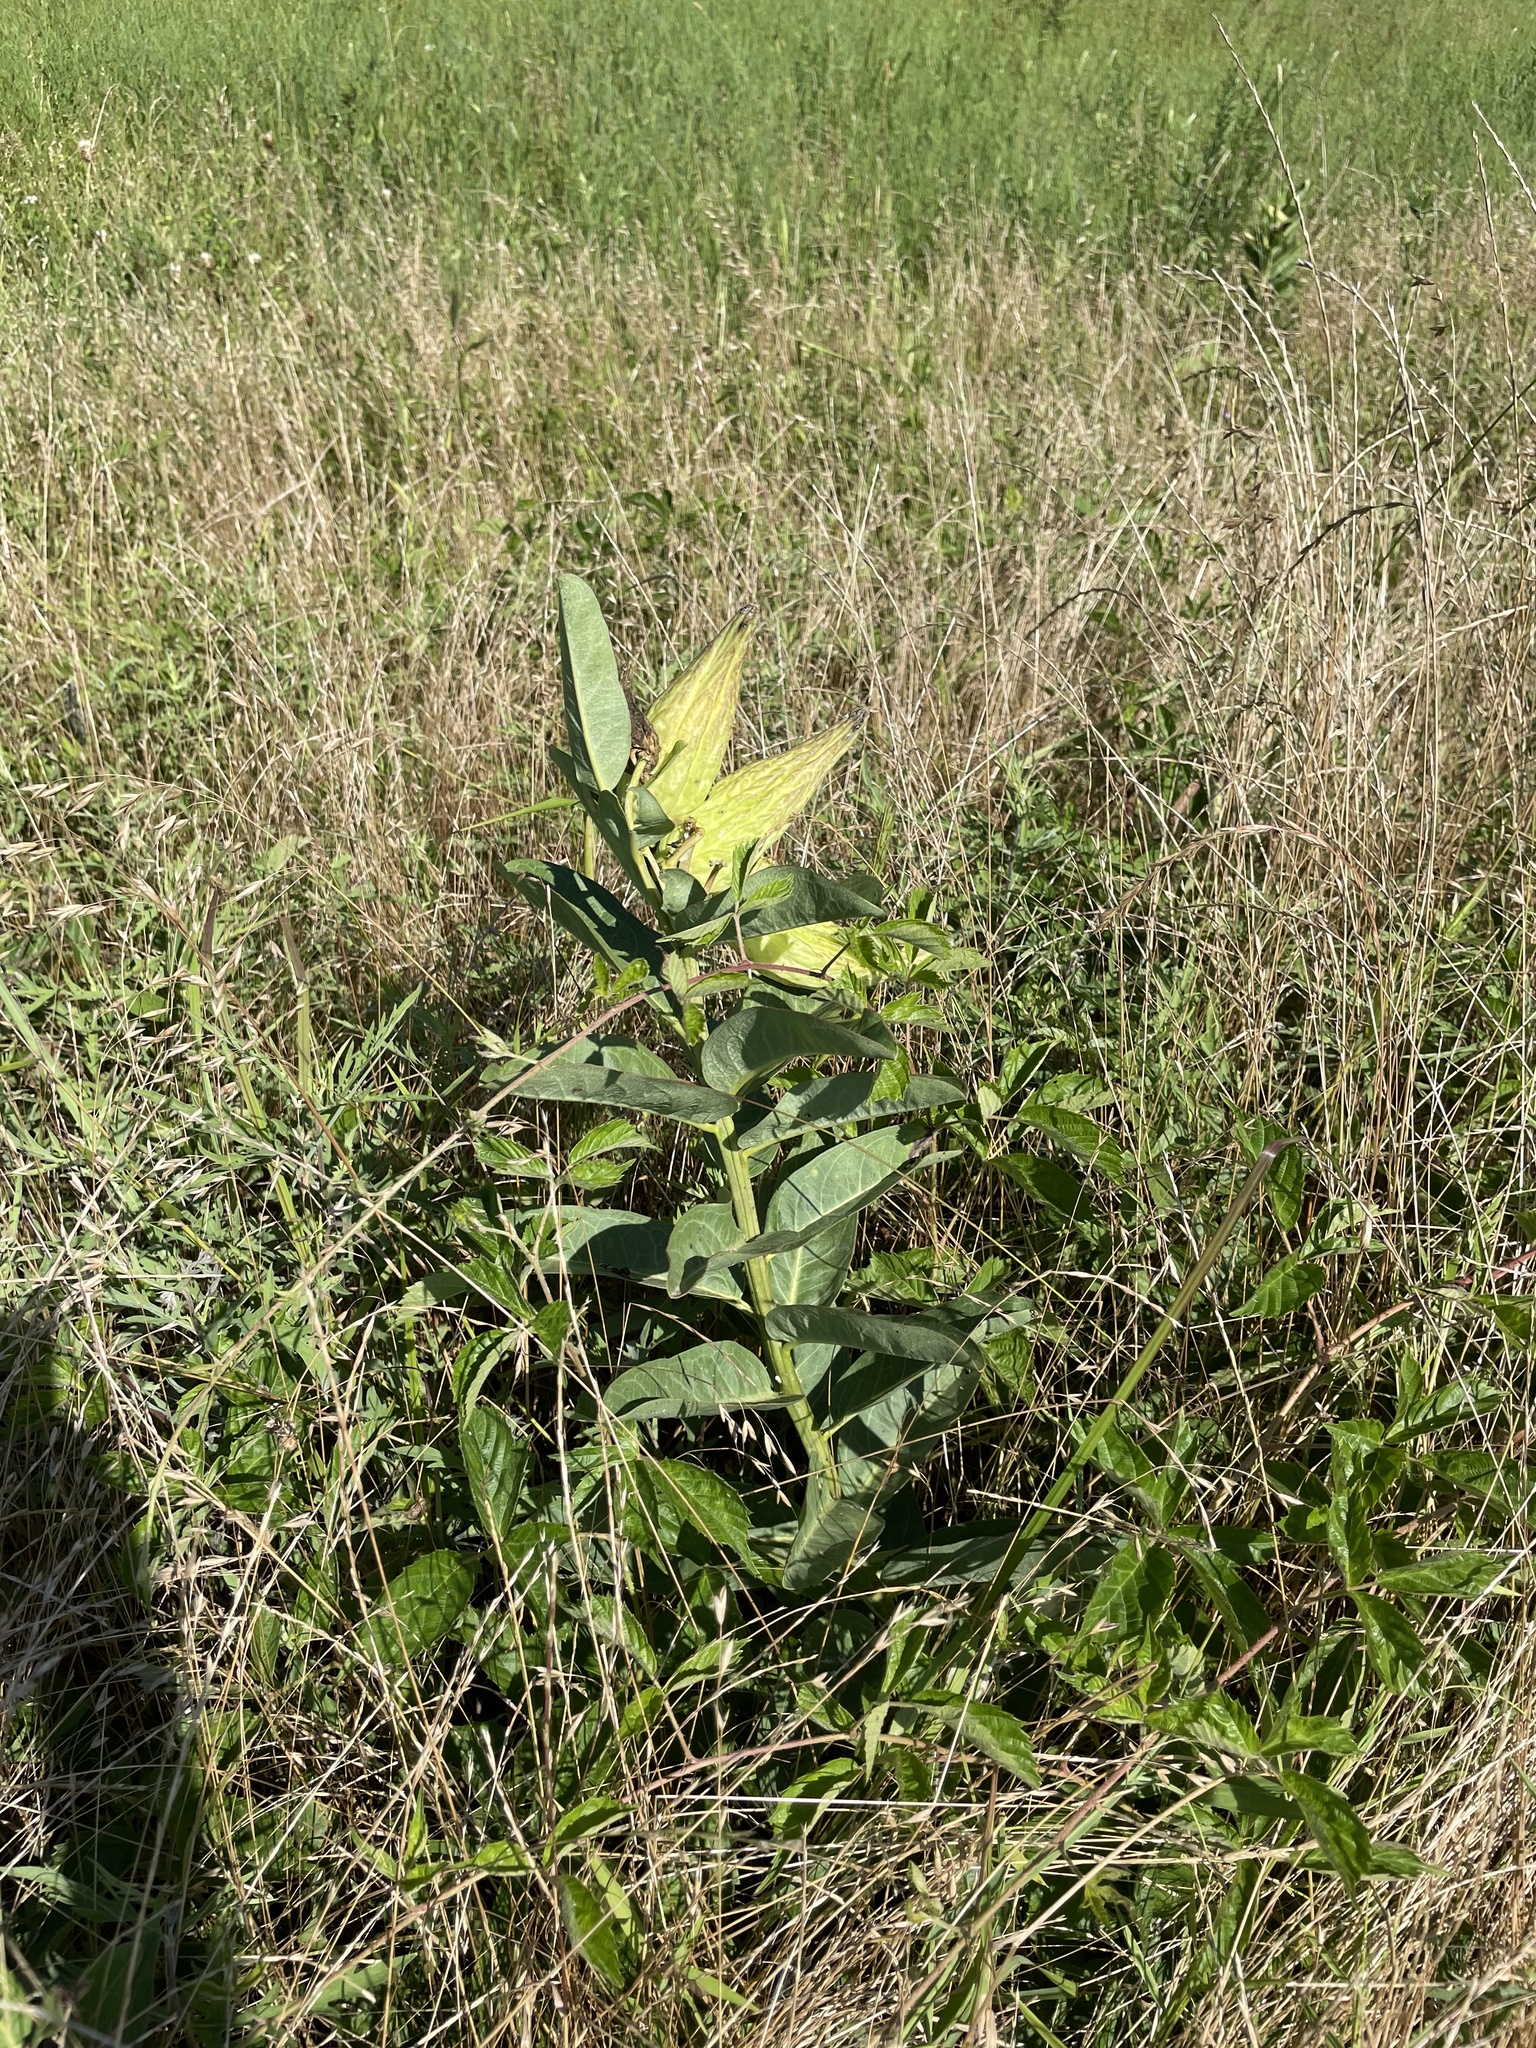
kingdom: Plantae
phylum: Tracheophyta
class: Magnoliopsida
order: Gentianales
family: Apocynaceae
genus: Asclepias
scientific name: Asclepias viridis
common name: Antelope-horns
